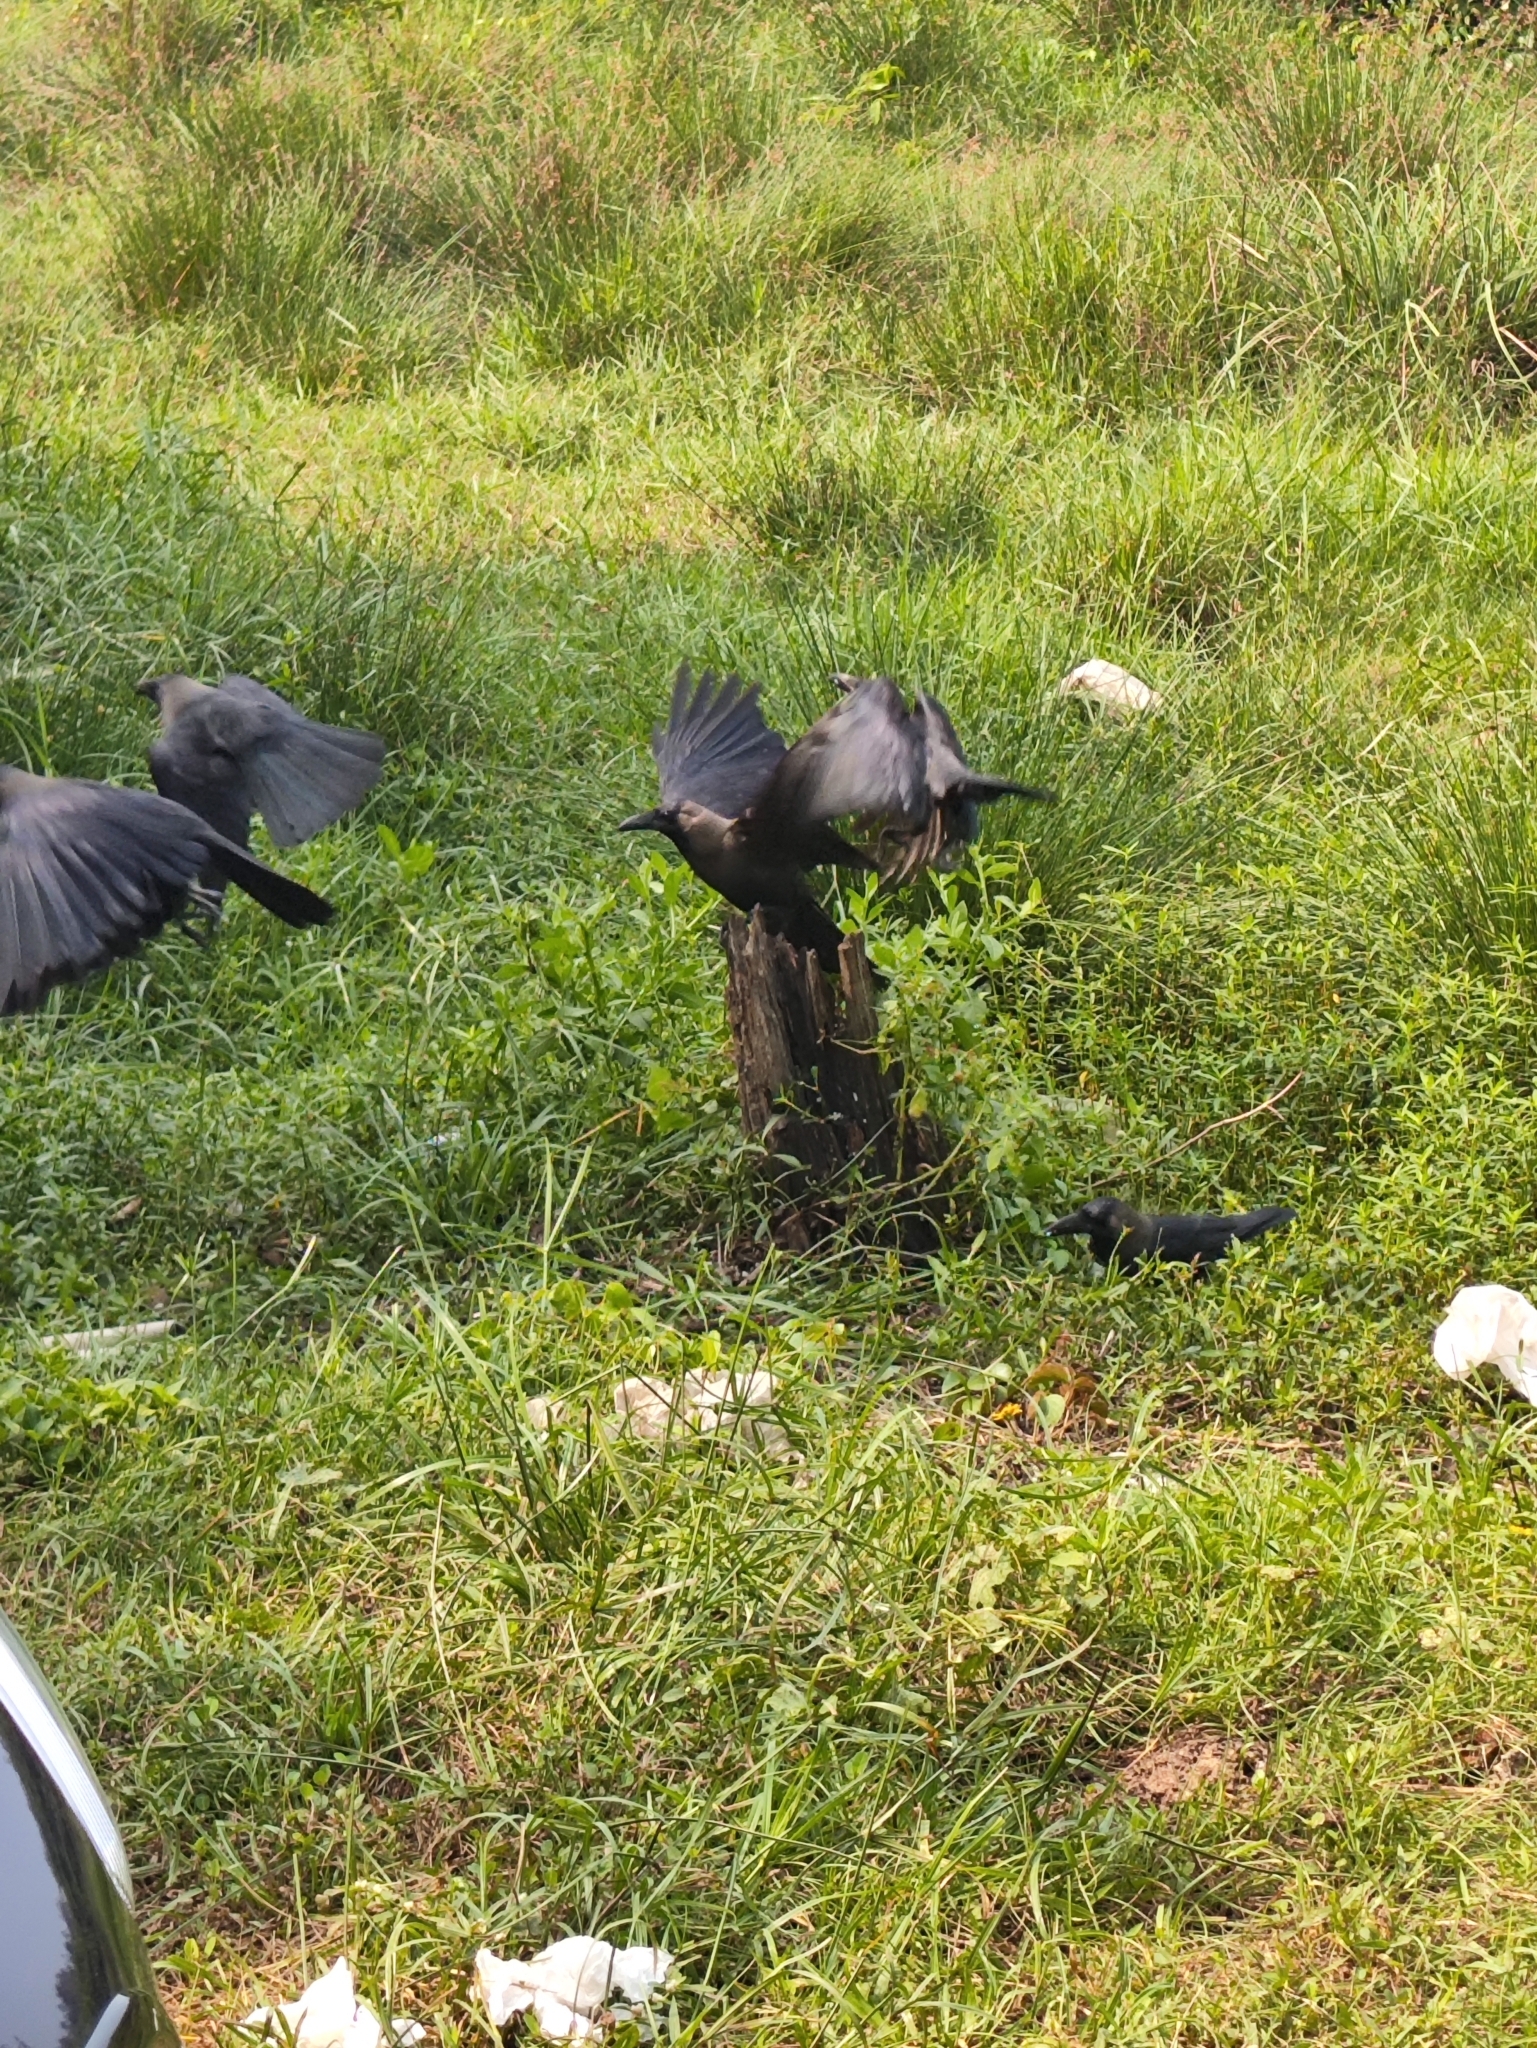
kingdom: Animalia
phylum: Chordata
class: Aves
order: Passeriformes
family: Corvidae
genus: Corvus
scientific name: Corvus splendens
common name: House crow
